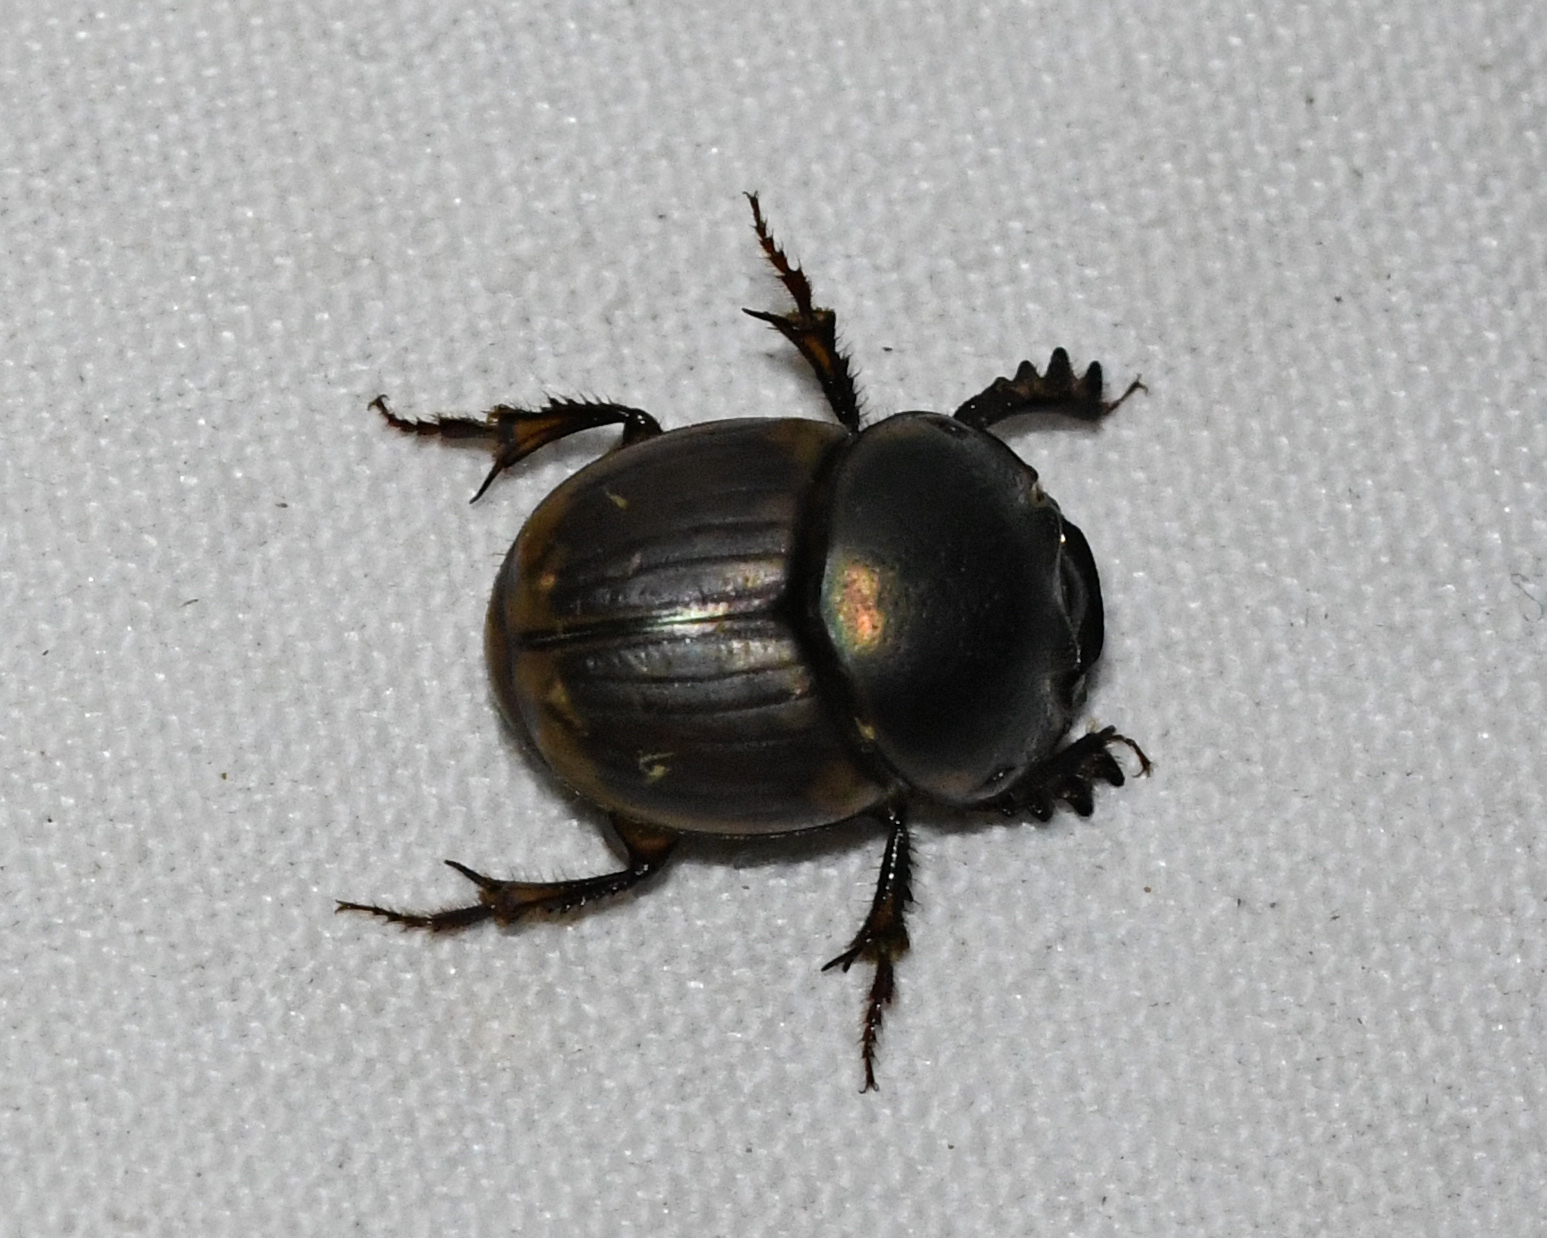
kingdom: Animalia
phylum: Arthropoda
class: Insecta
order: Coleoptera
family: Scarabaeidae
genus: Digitonthophagus
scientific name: Digitonthophagus gazella
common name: Brown dung beetle
